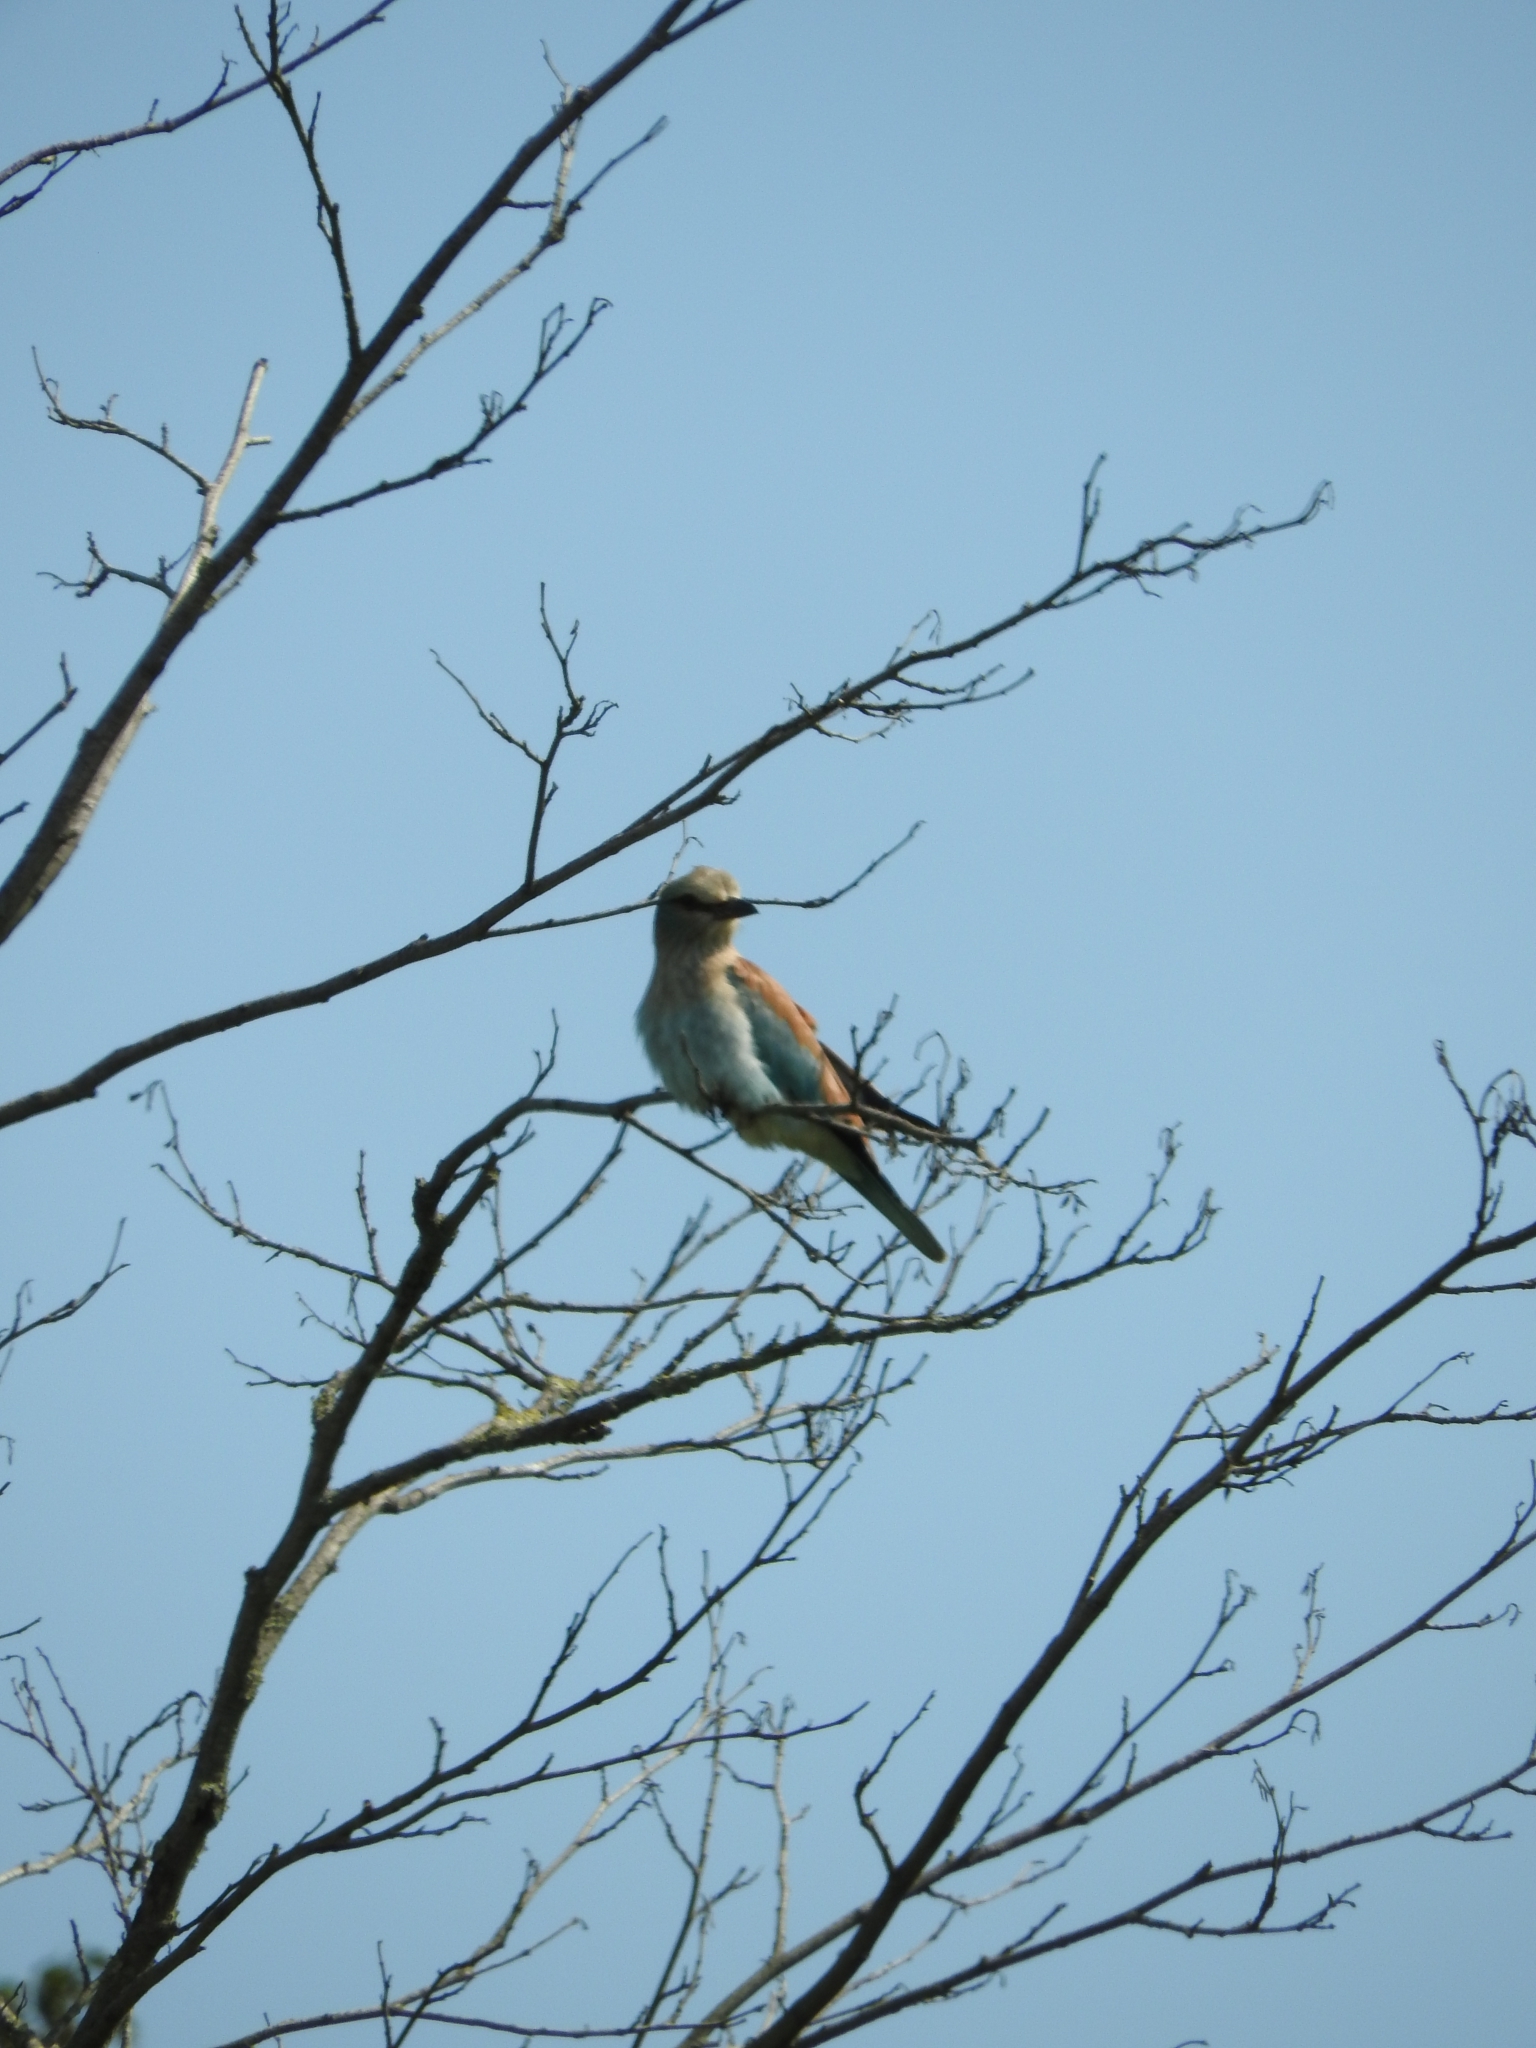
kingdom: Animalia
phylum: Chordata
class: Aves
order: Coraciiformes
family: Coraciidae
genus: Coracias
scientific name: Coracias garrulus
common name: European roller
